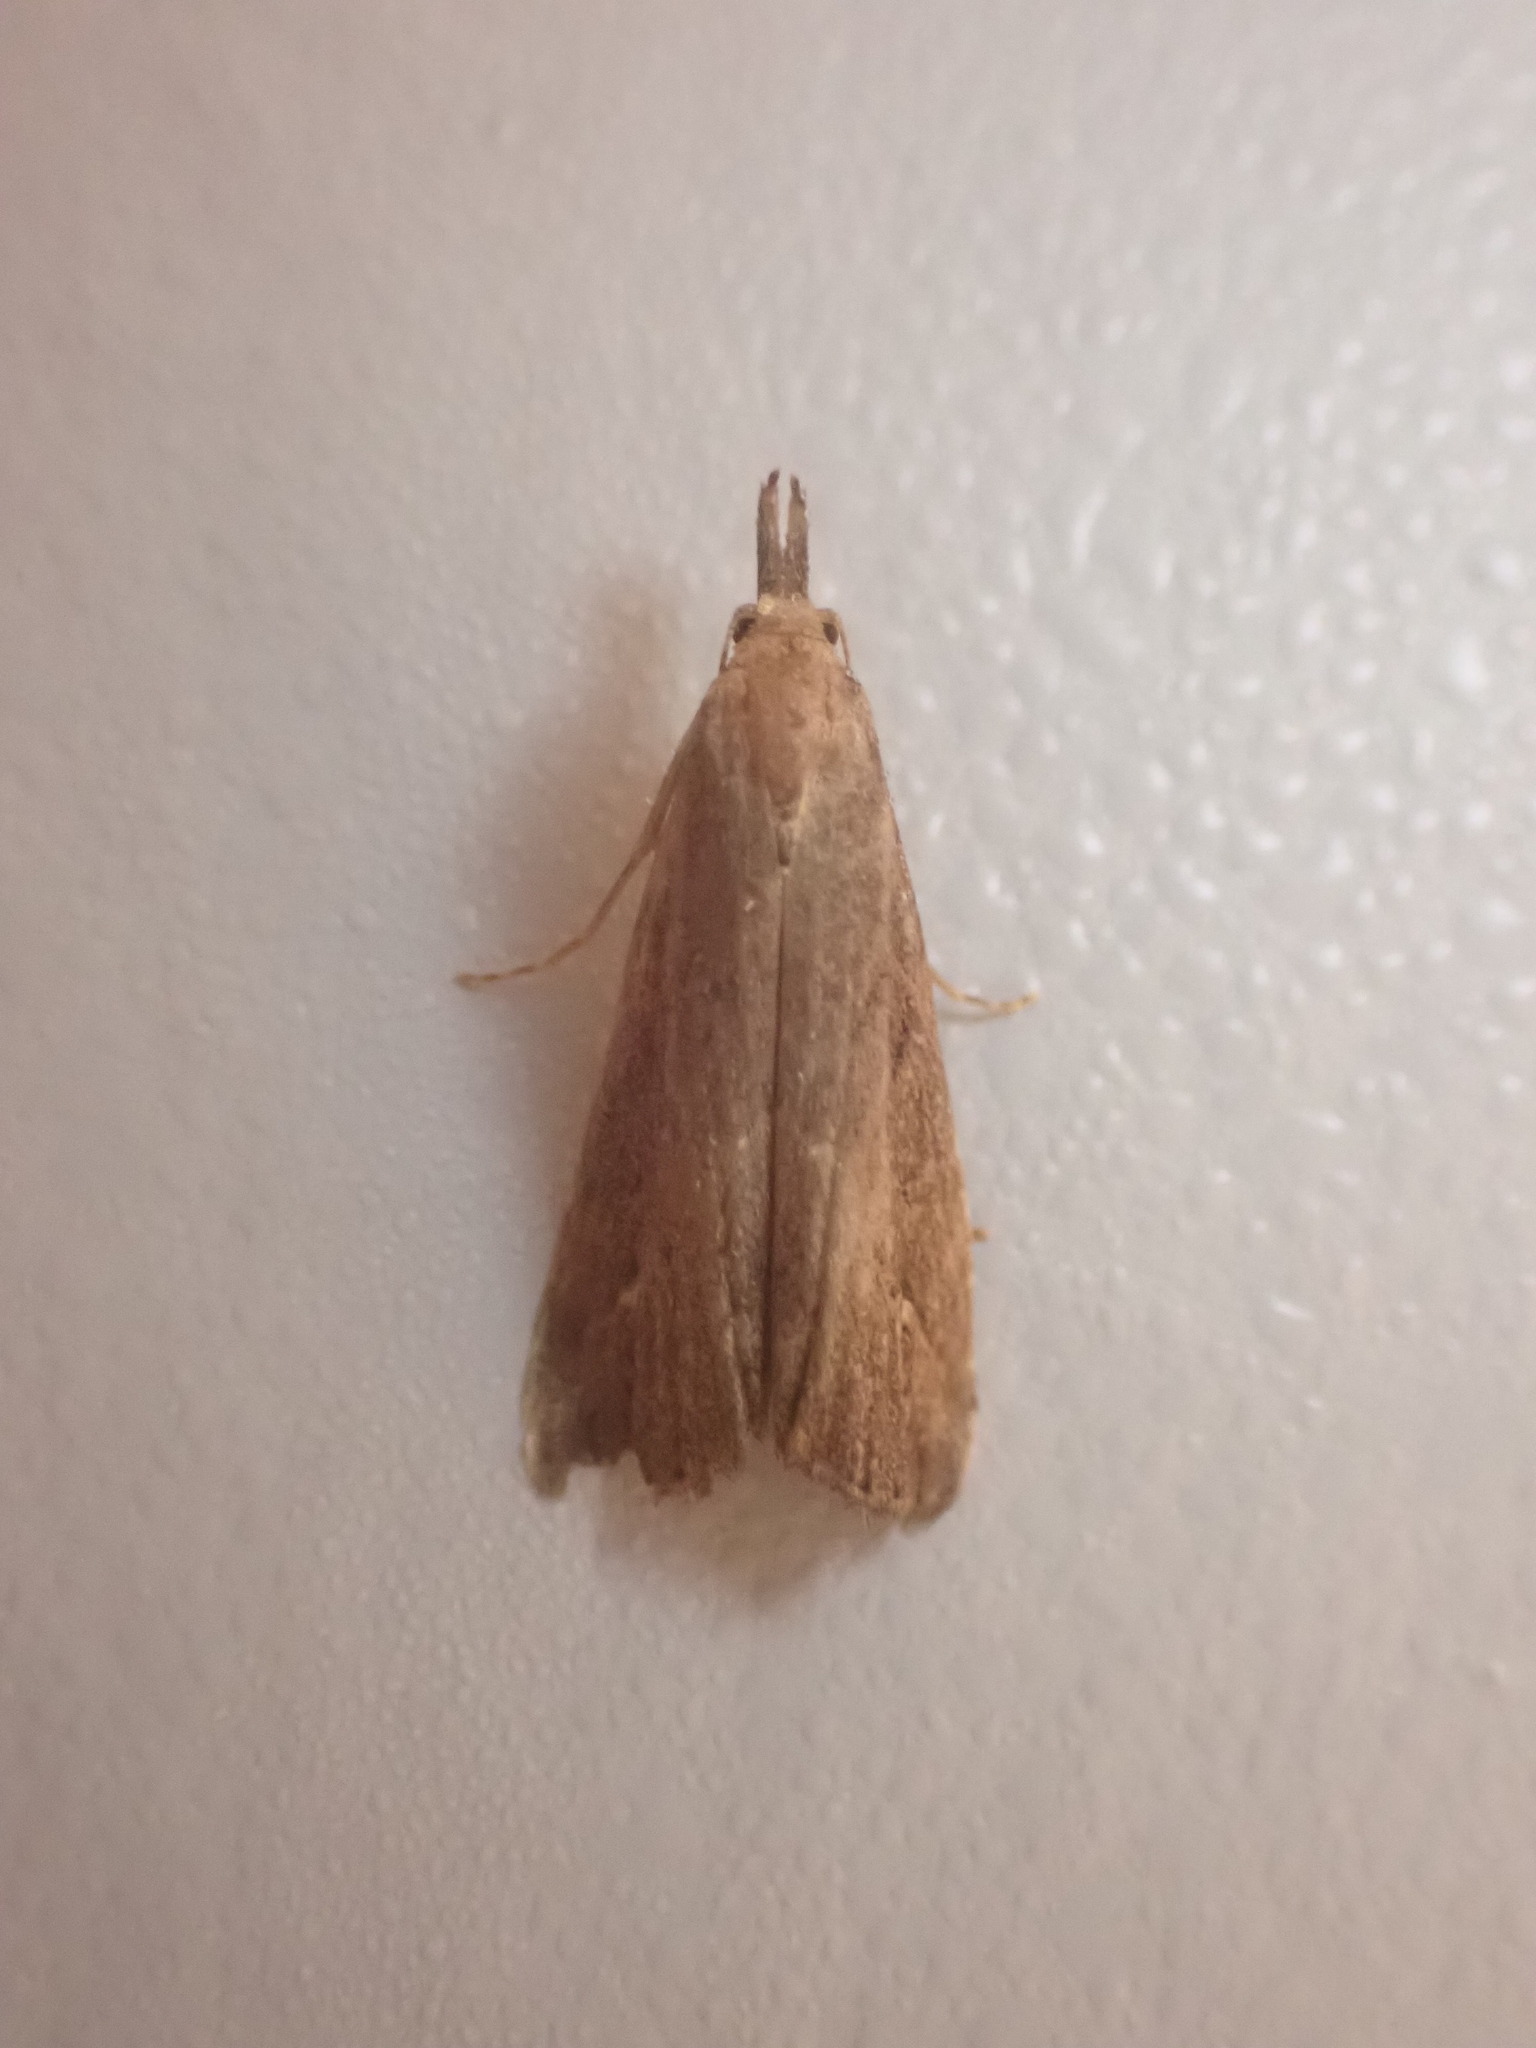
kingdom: Animalia
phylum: Arthropoda
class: Insecta
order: Lepidoptera
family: Erebidae
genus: Schrankia
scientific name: Schrankia costaestrigalis
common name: Pinion-streaked snout
